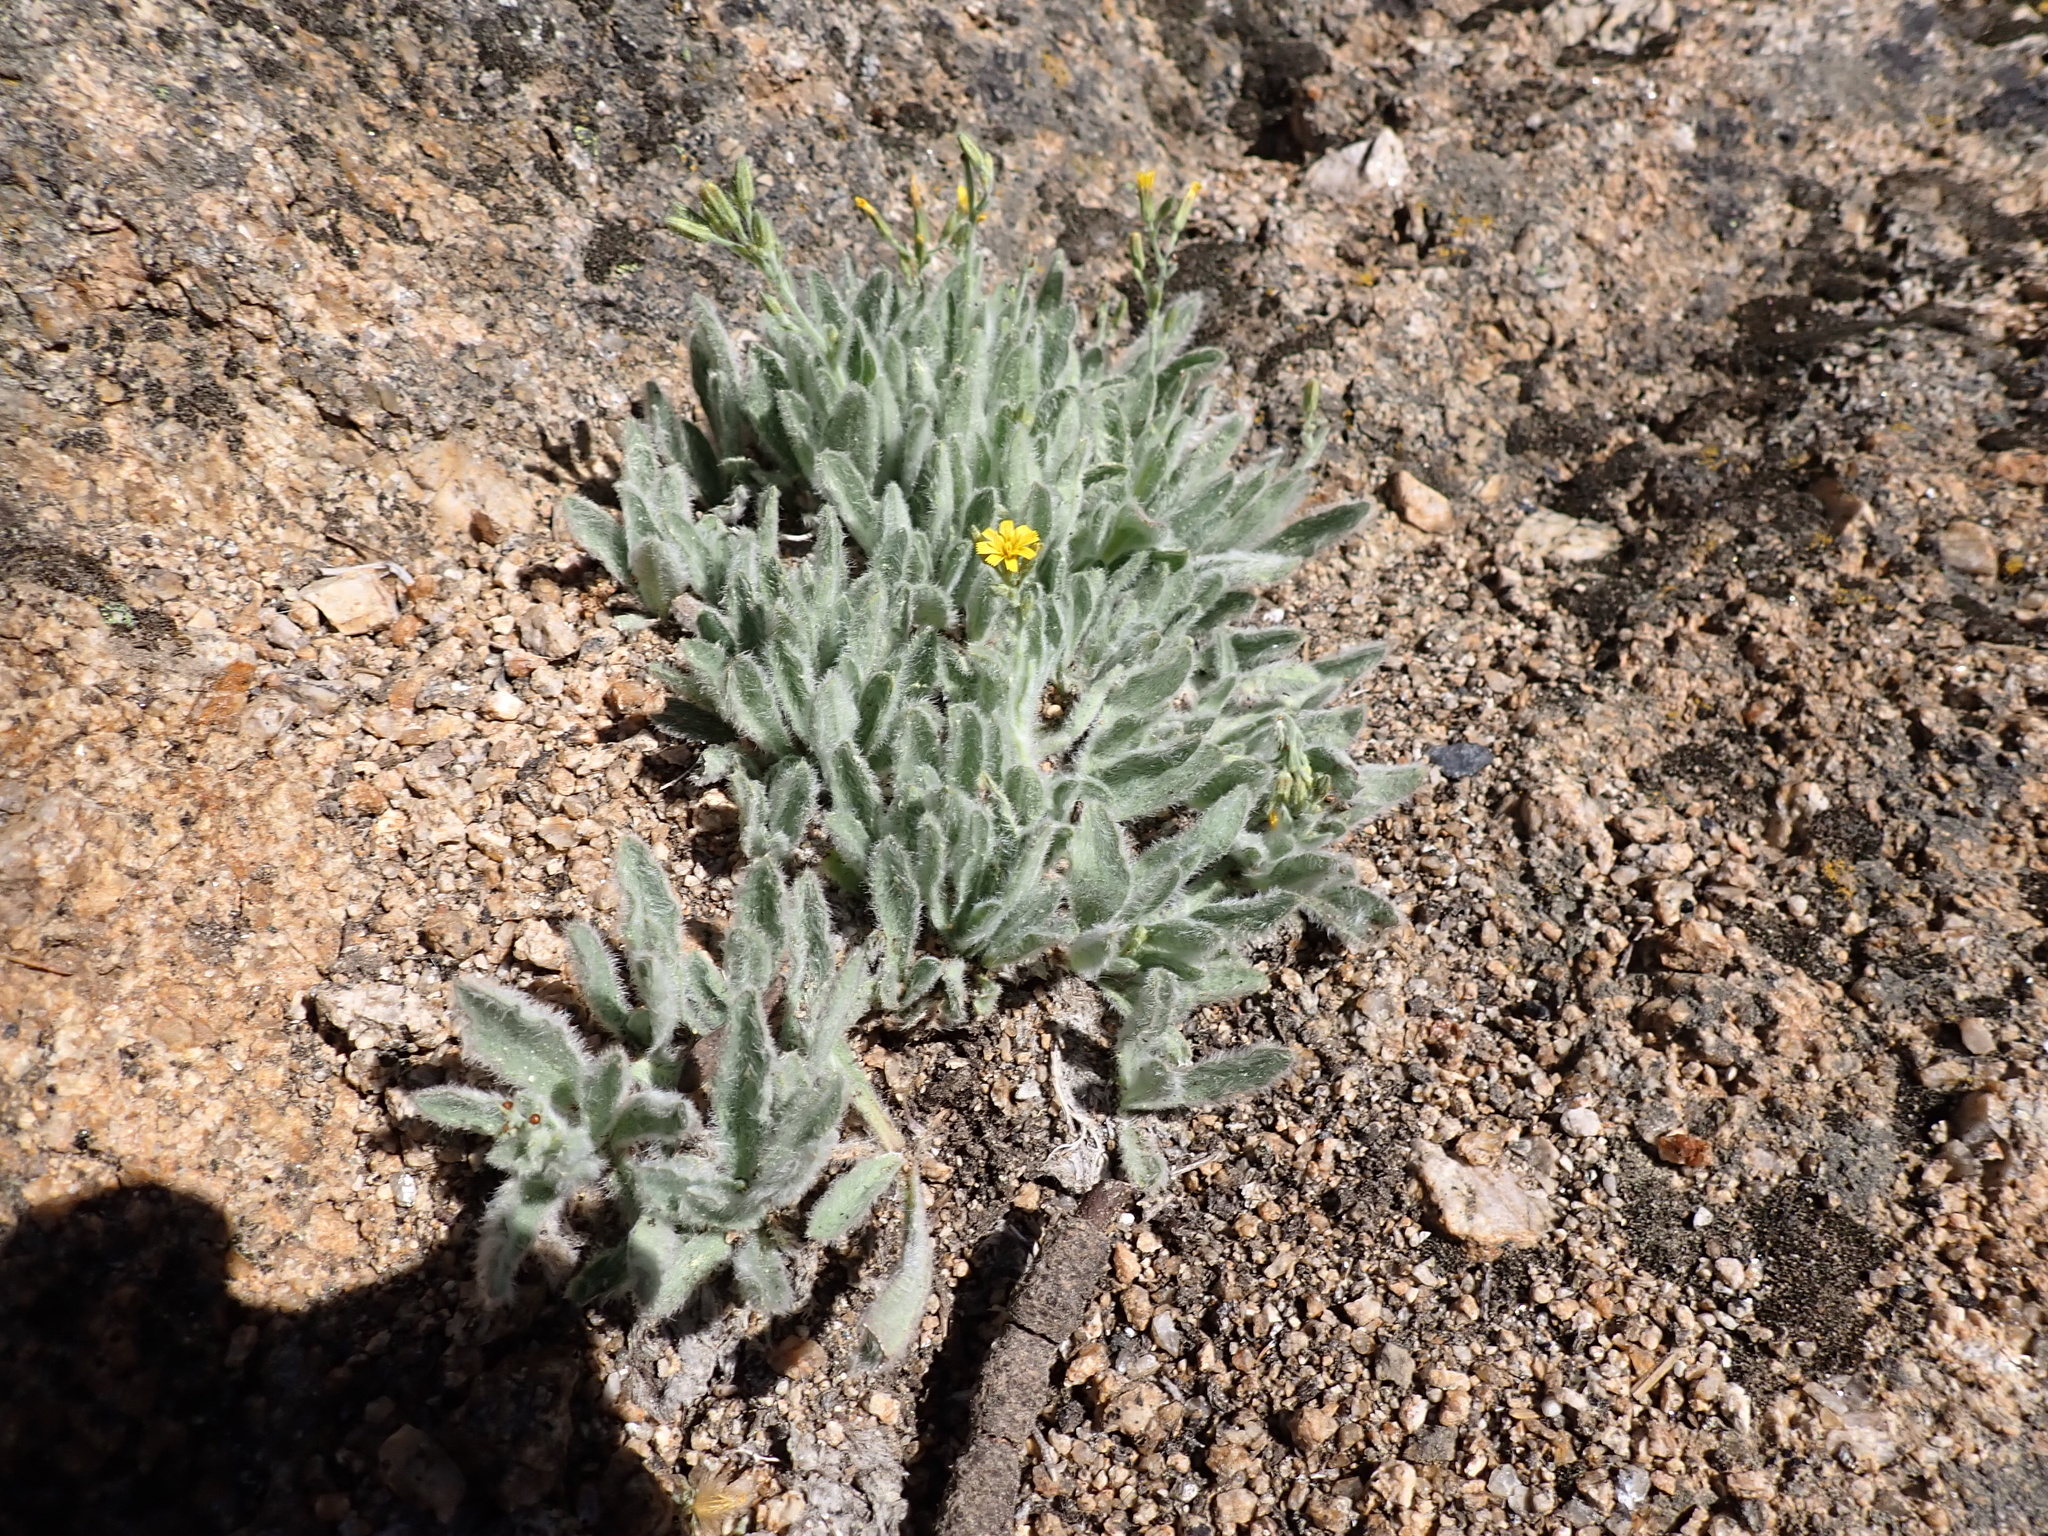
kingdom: Plantae
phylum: Tracheophyta
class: Magnoliopsida
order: Asterales
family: Asteraceae
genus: Hieracium
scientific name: Hieracium horridum
